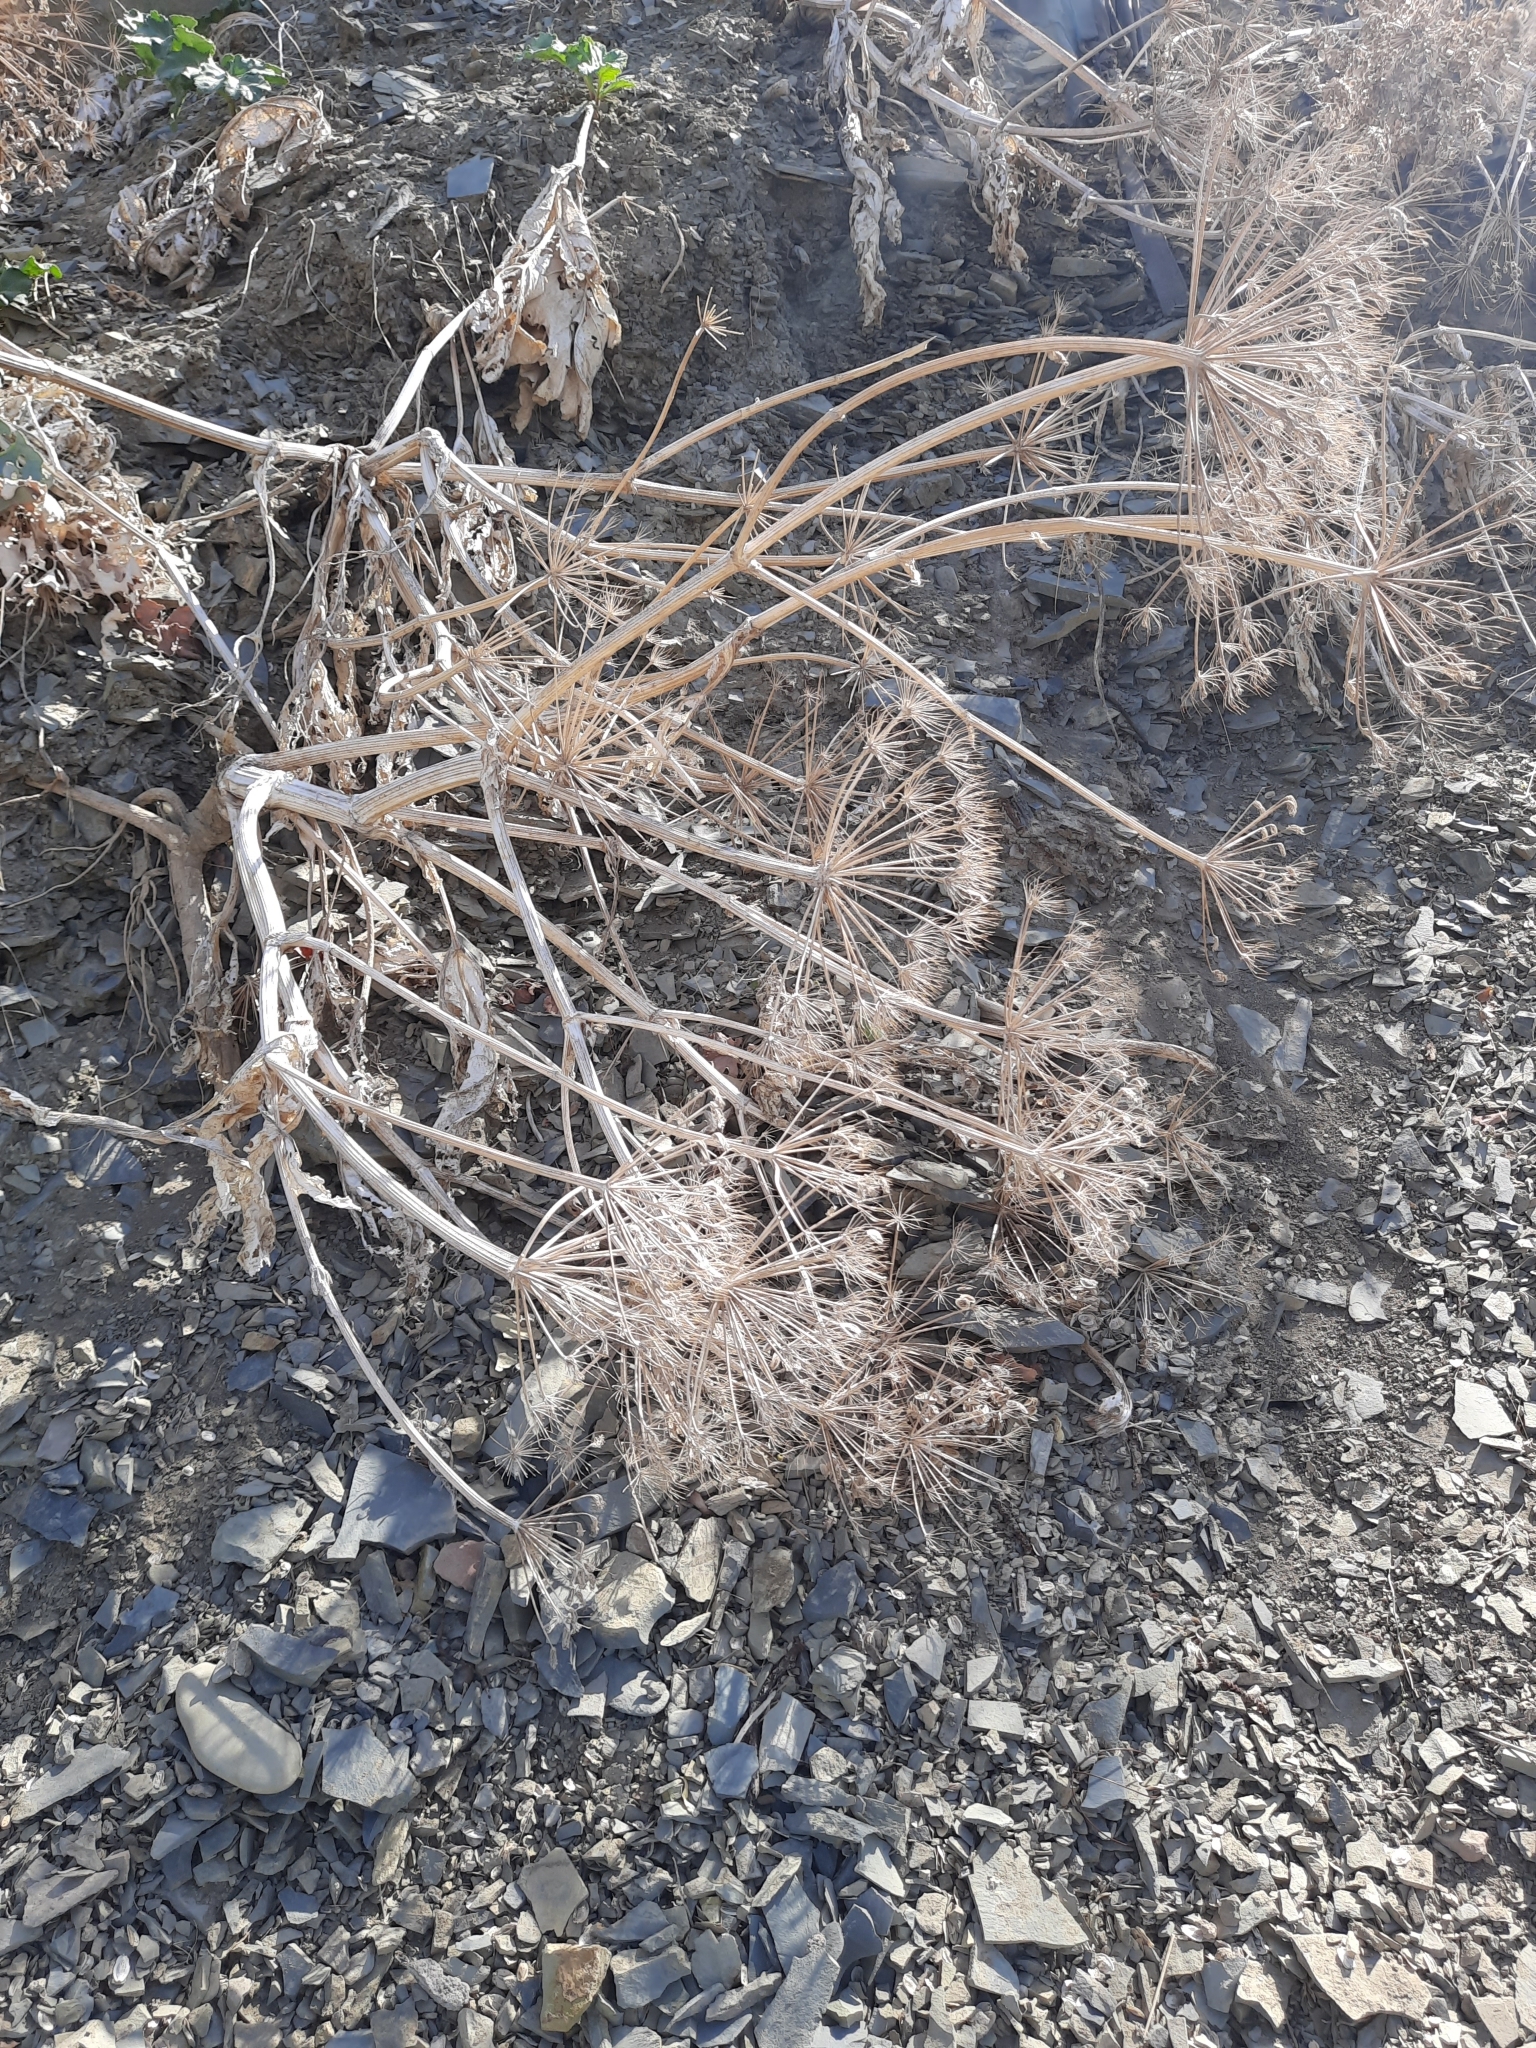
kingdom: Plantae
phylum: Tracheophyta
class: Magnoliopsida
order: Apiales
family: Apiaceae
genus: Heracleum
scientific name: Heracleum stevenii
